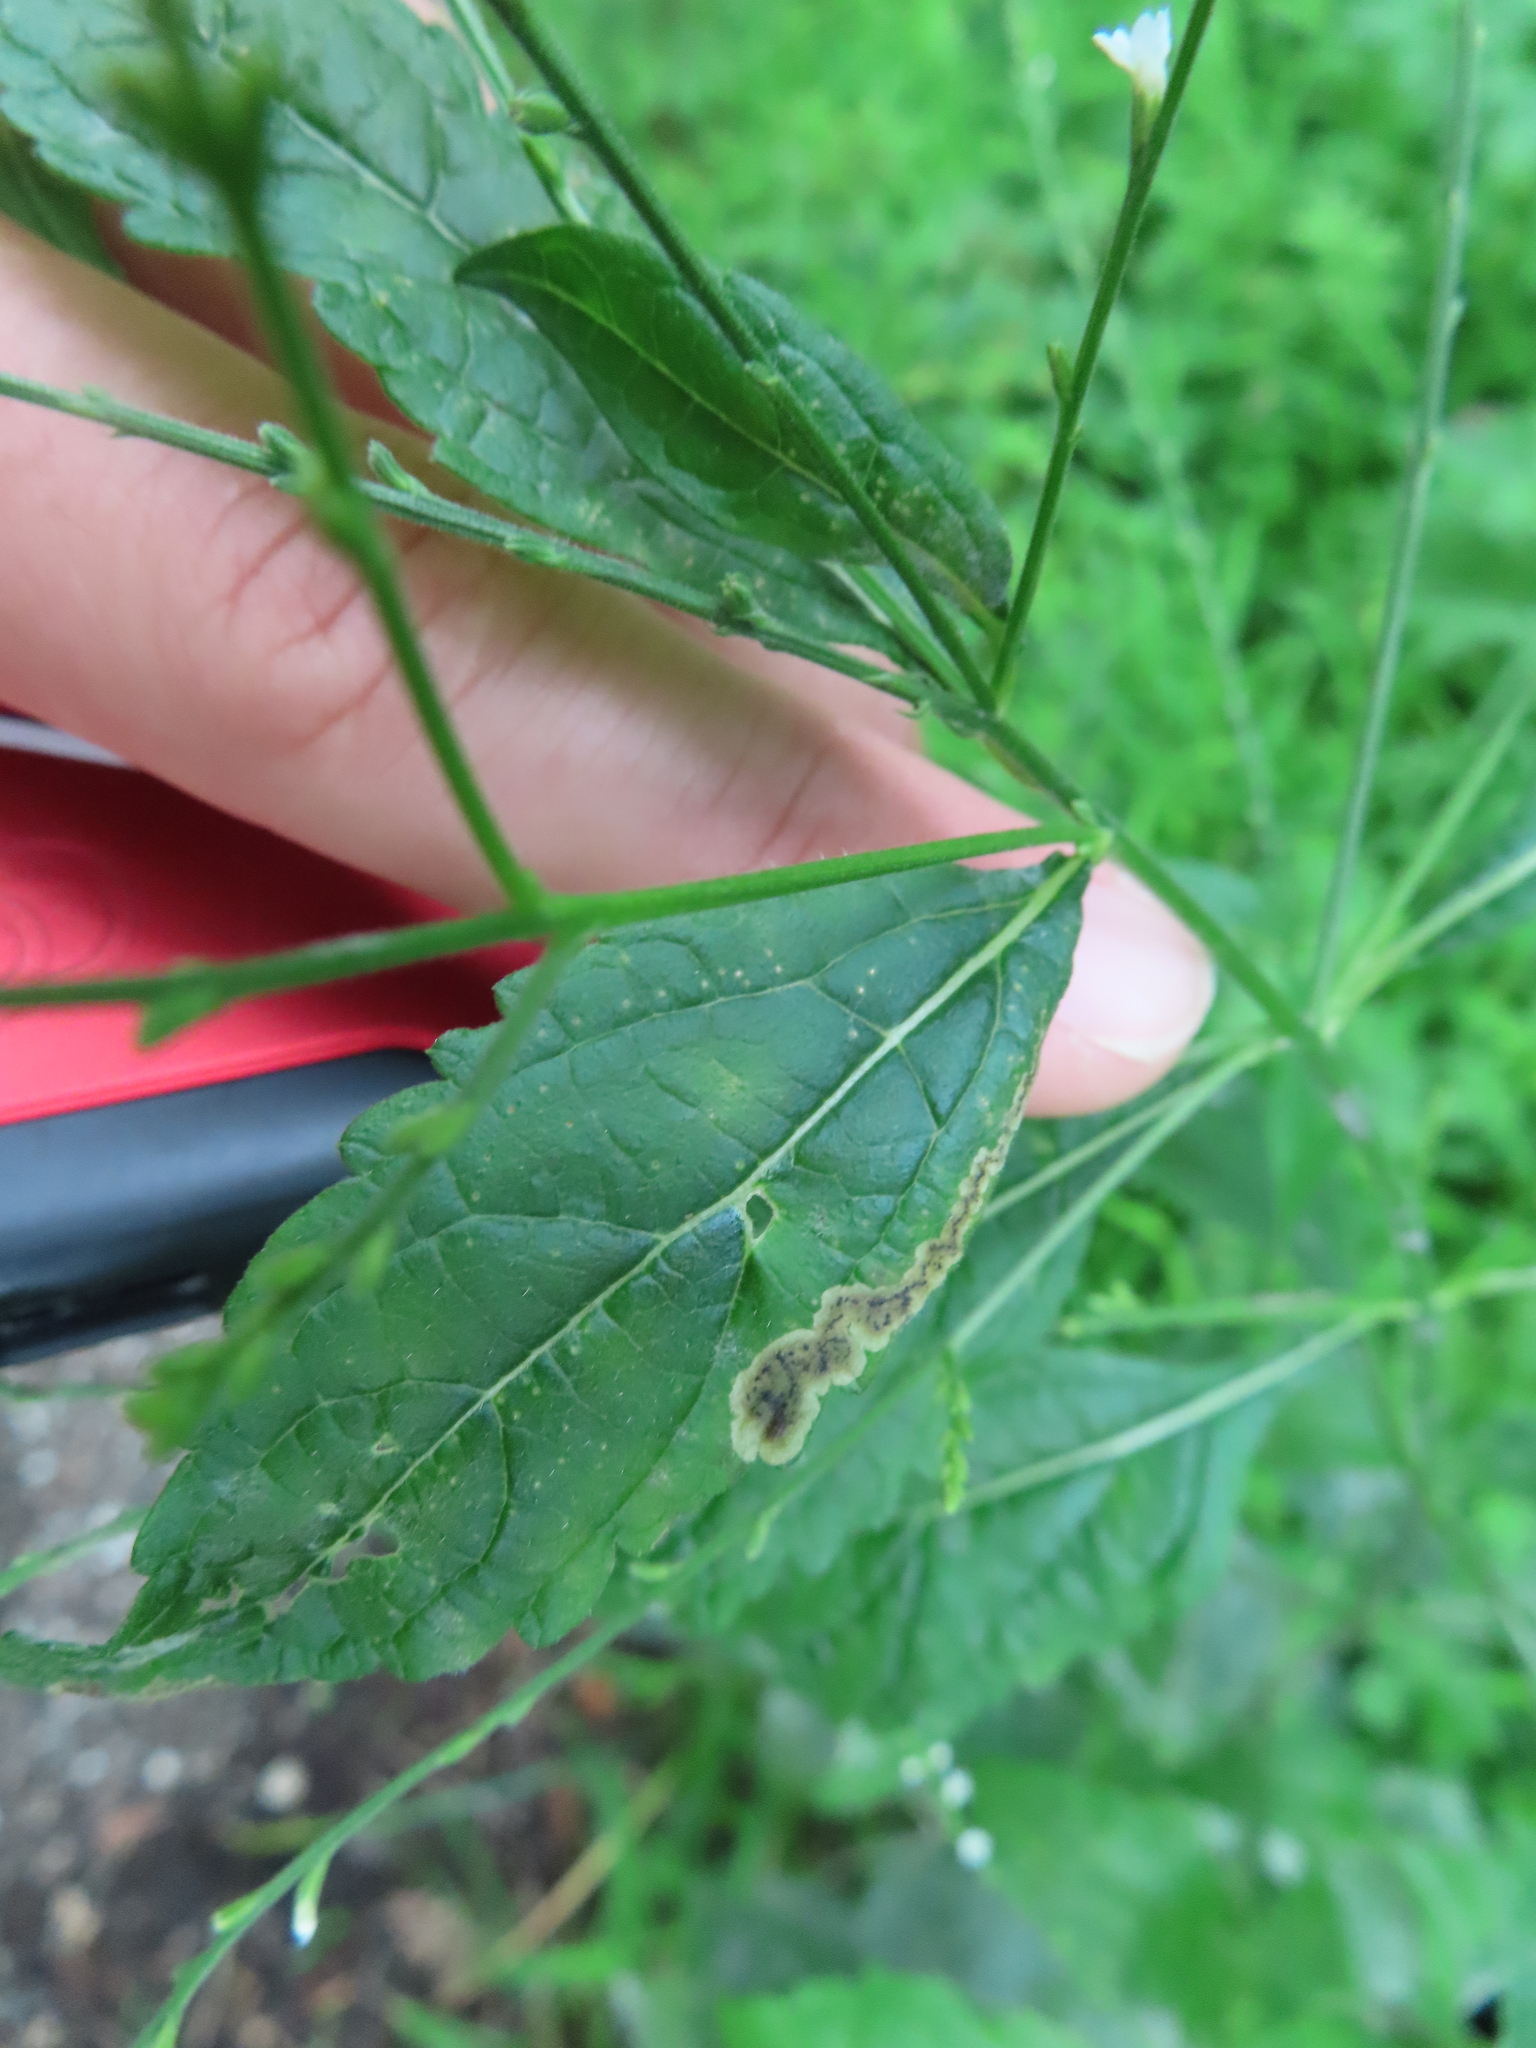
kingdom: Animalia
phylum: Arthropoda
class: Insecta
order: Diptera
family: Agromyzidae
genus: Calycomyza
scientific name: Calycomyza verbenae
